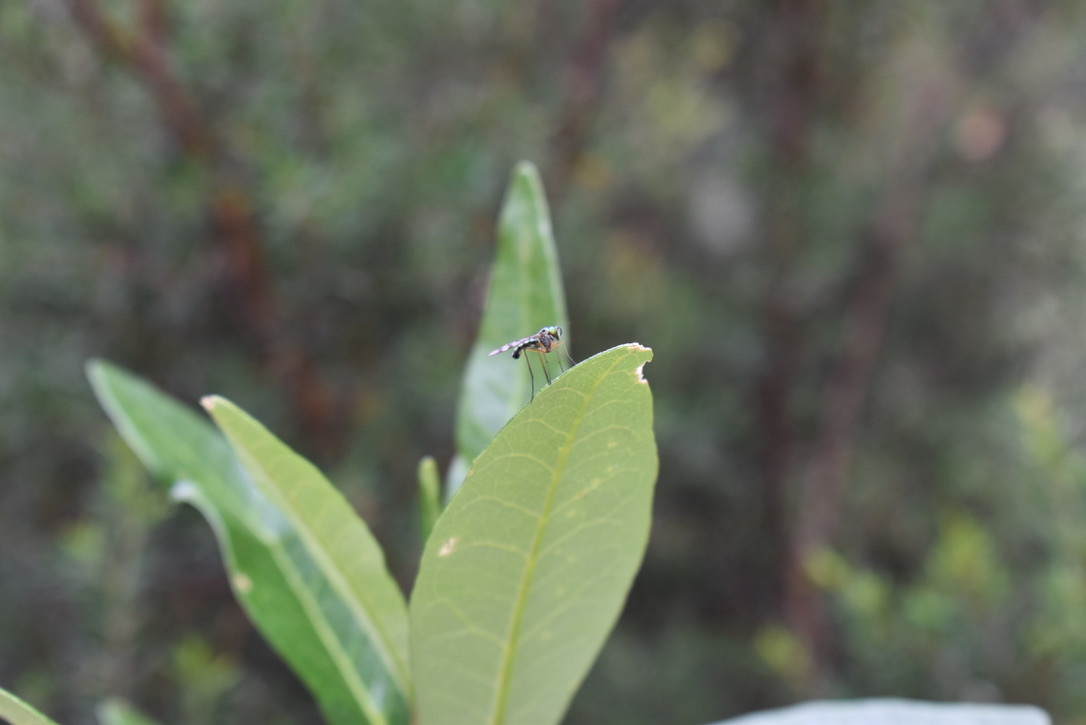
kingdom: Animalia
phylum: Arthropoda
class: Insecta
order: Diptera
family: Dolichopodidae
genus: Heteropsilopus
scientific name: Heteropsilopus ingenuum
